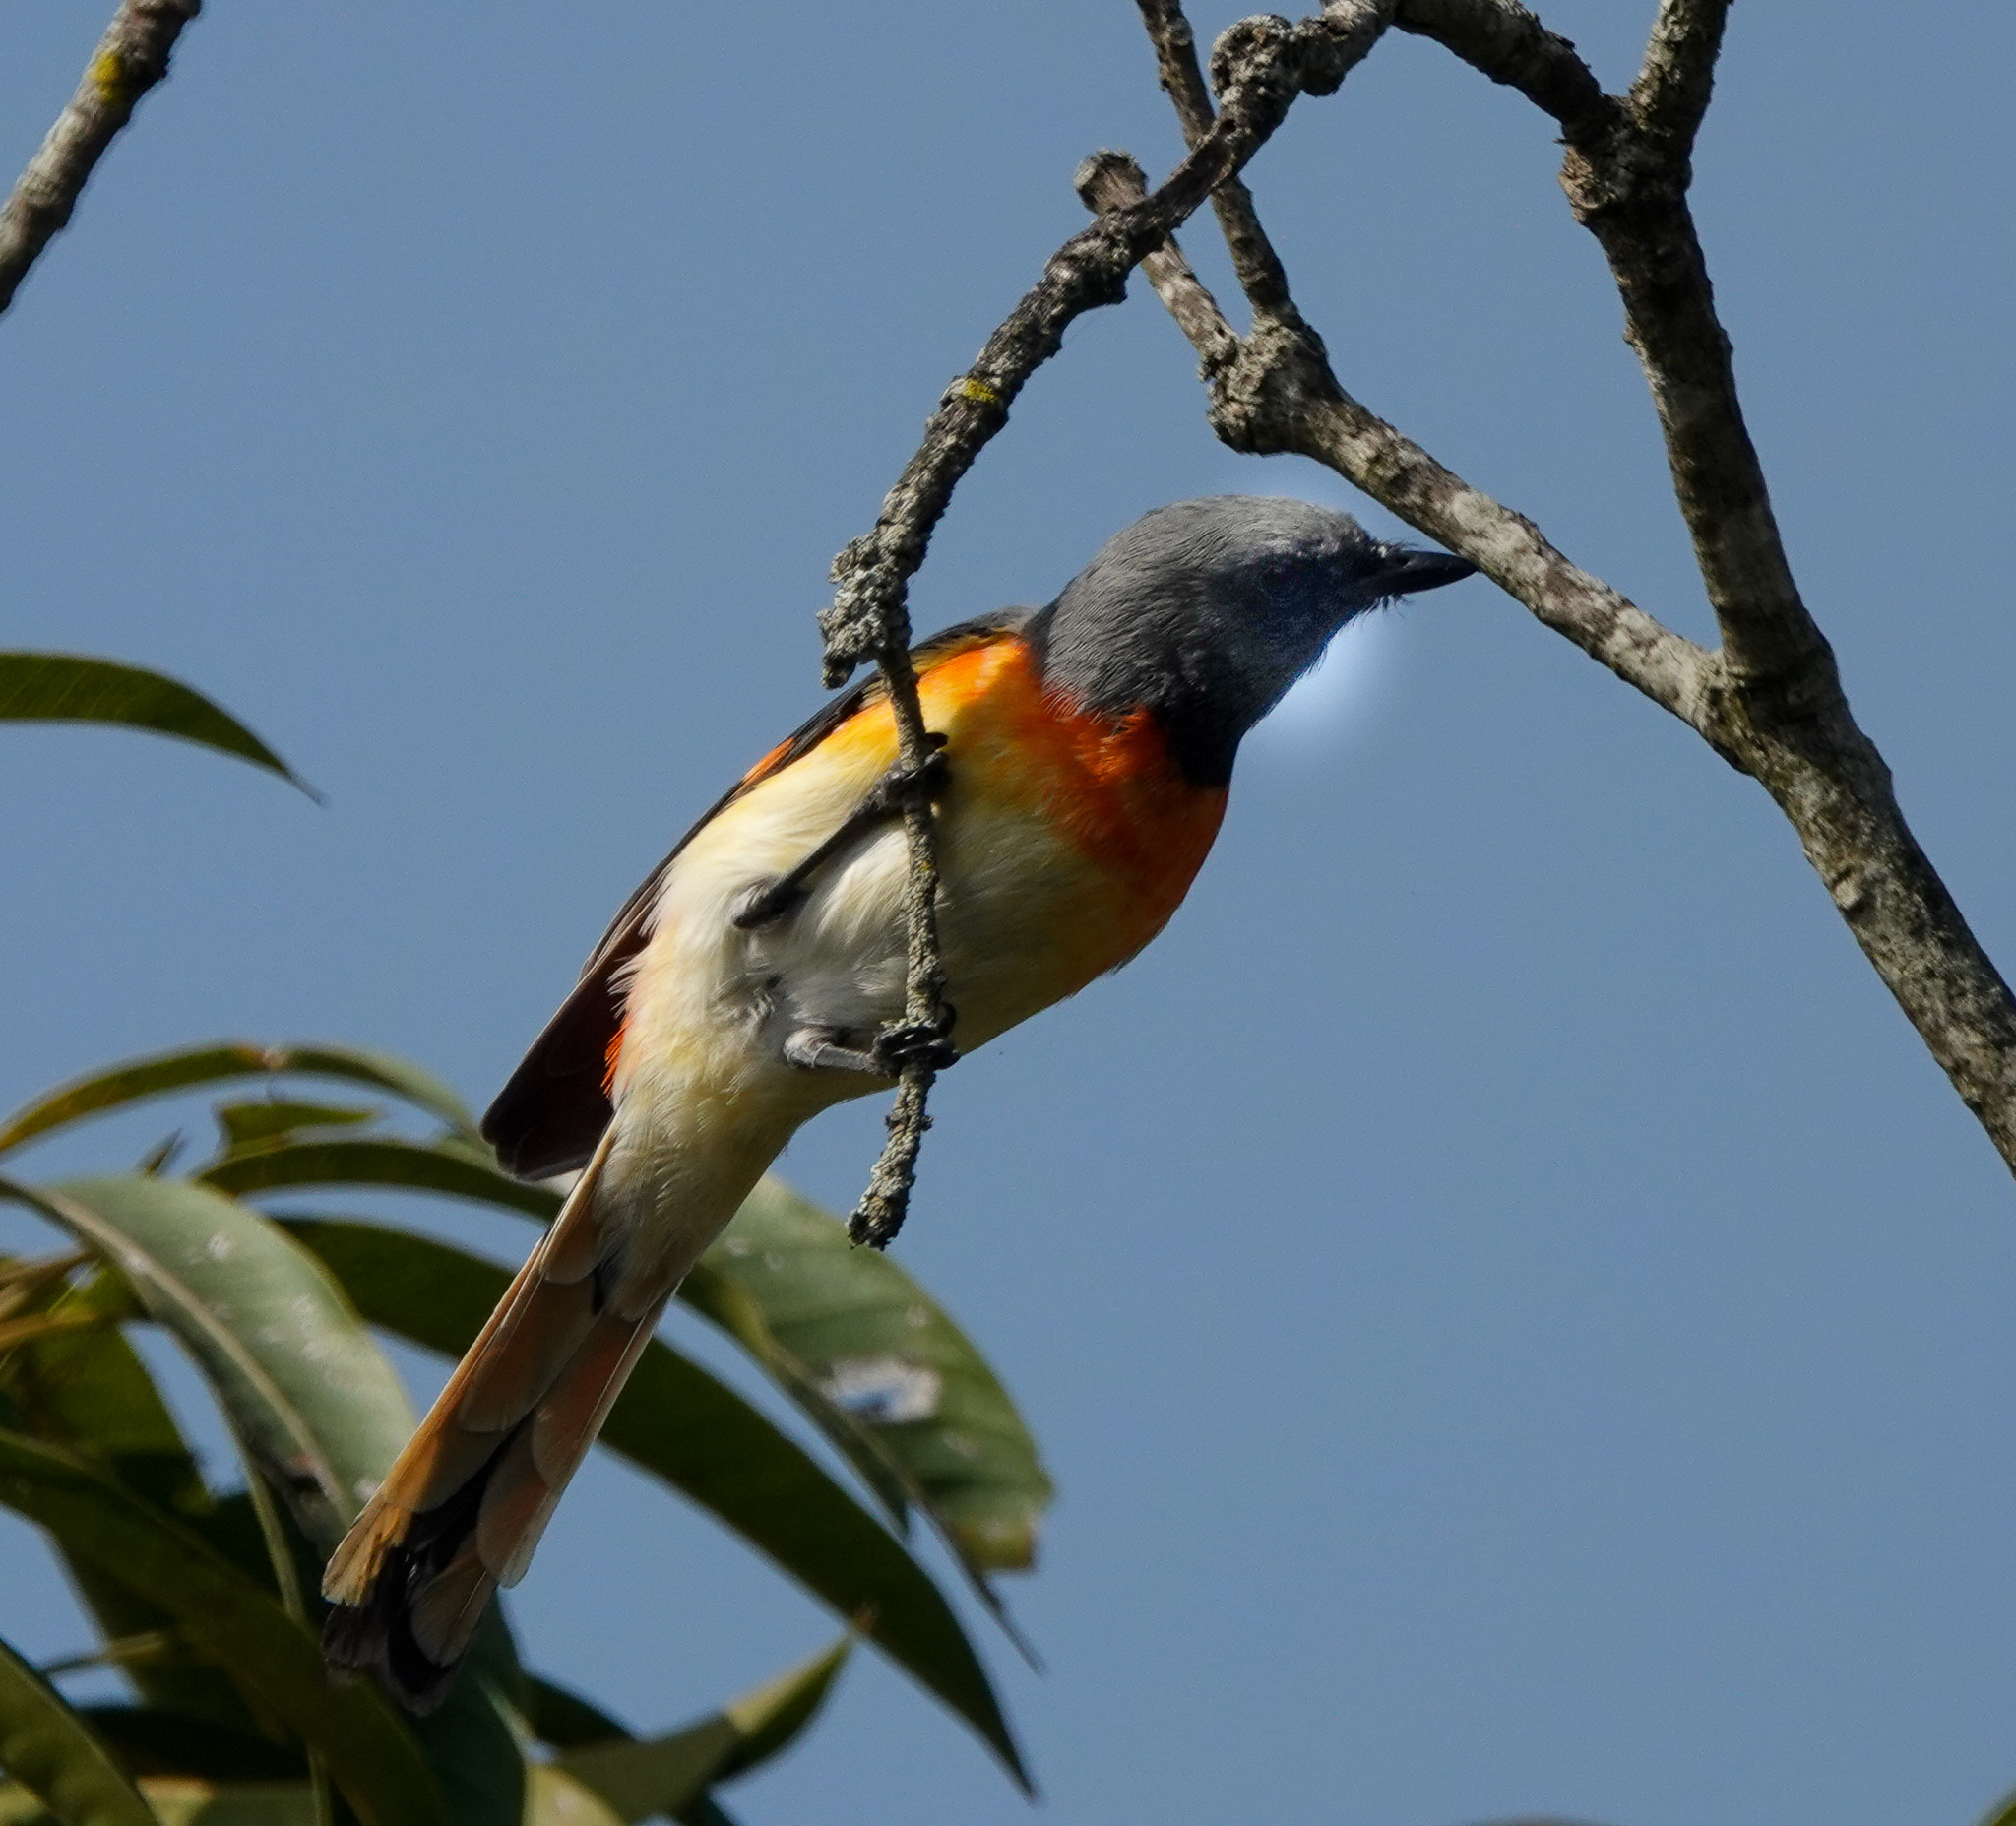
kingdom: Animalia
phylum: Chordata
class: Aves
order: Passeriformes
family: Campephagidae
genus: Pericrocotus
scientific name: Pericrocotus cinnamomeus
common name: Small minivet
